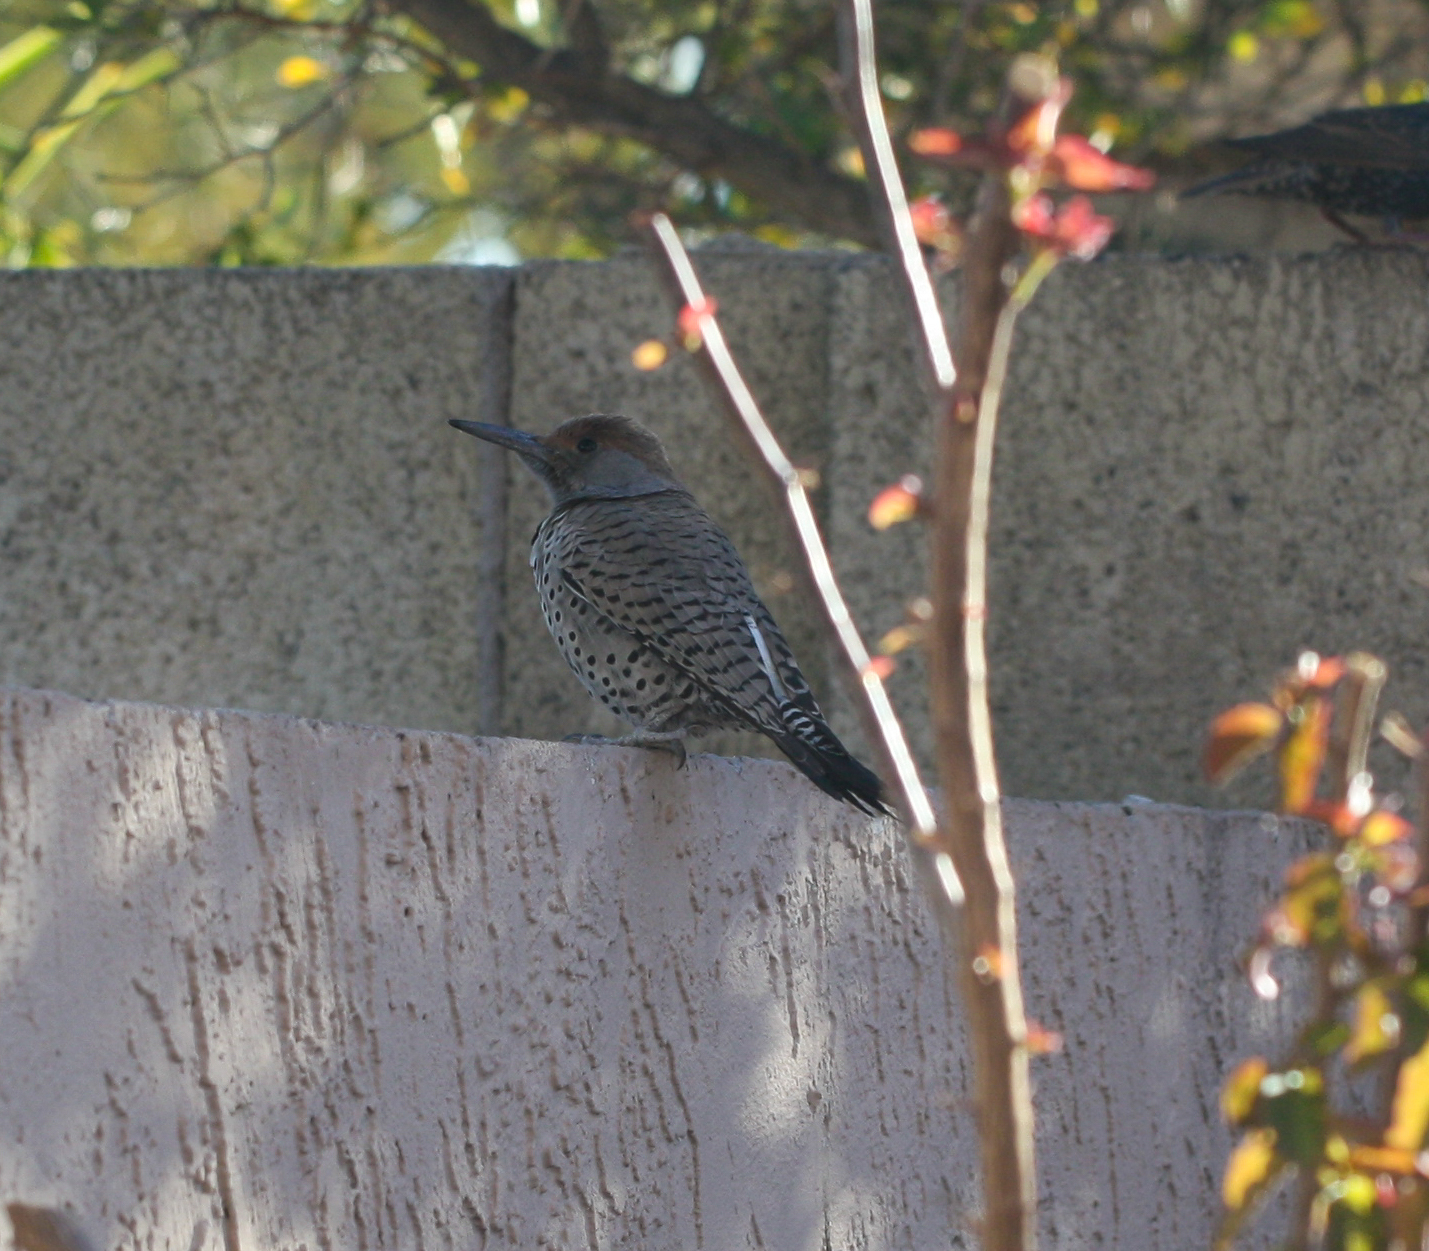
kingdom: Animalia
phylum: Chordata
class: Aves
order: Piciformes
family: Picidae
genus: Colaptes
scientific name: Colaptes chrysoides
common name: Gilded flicker
